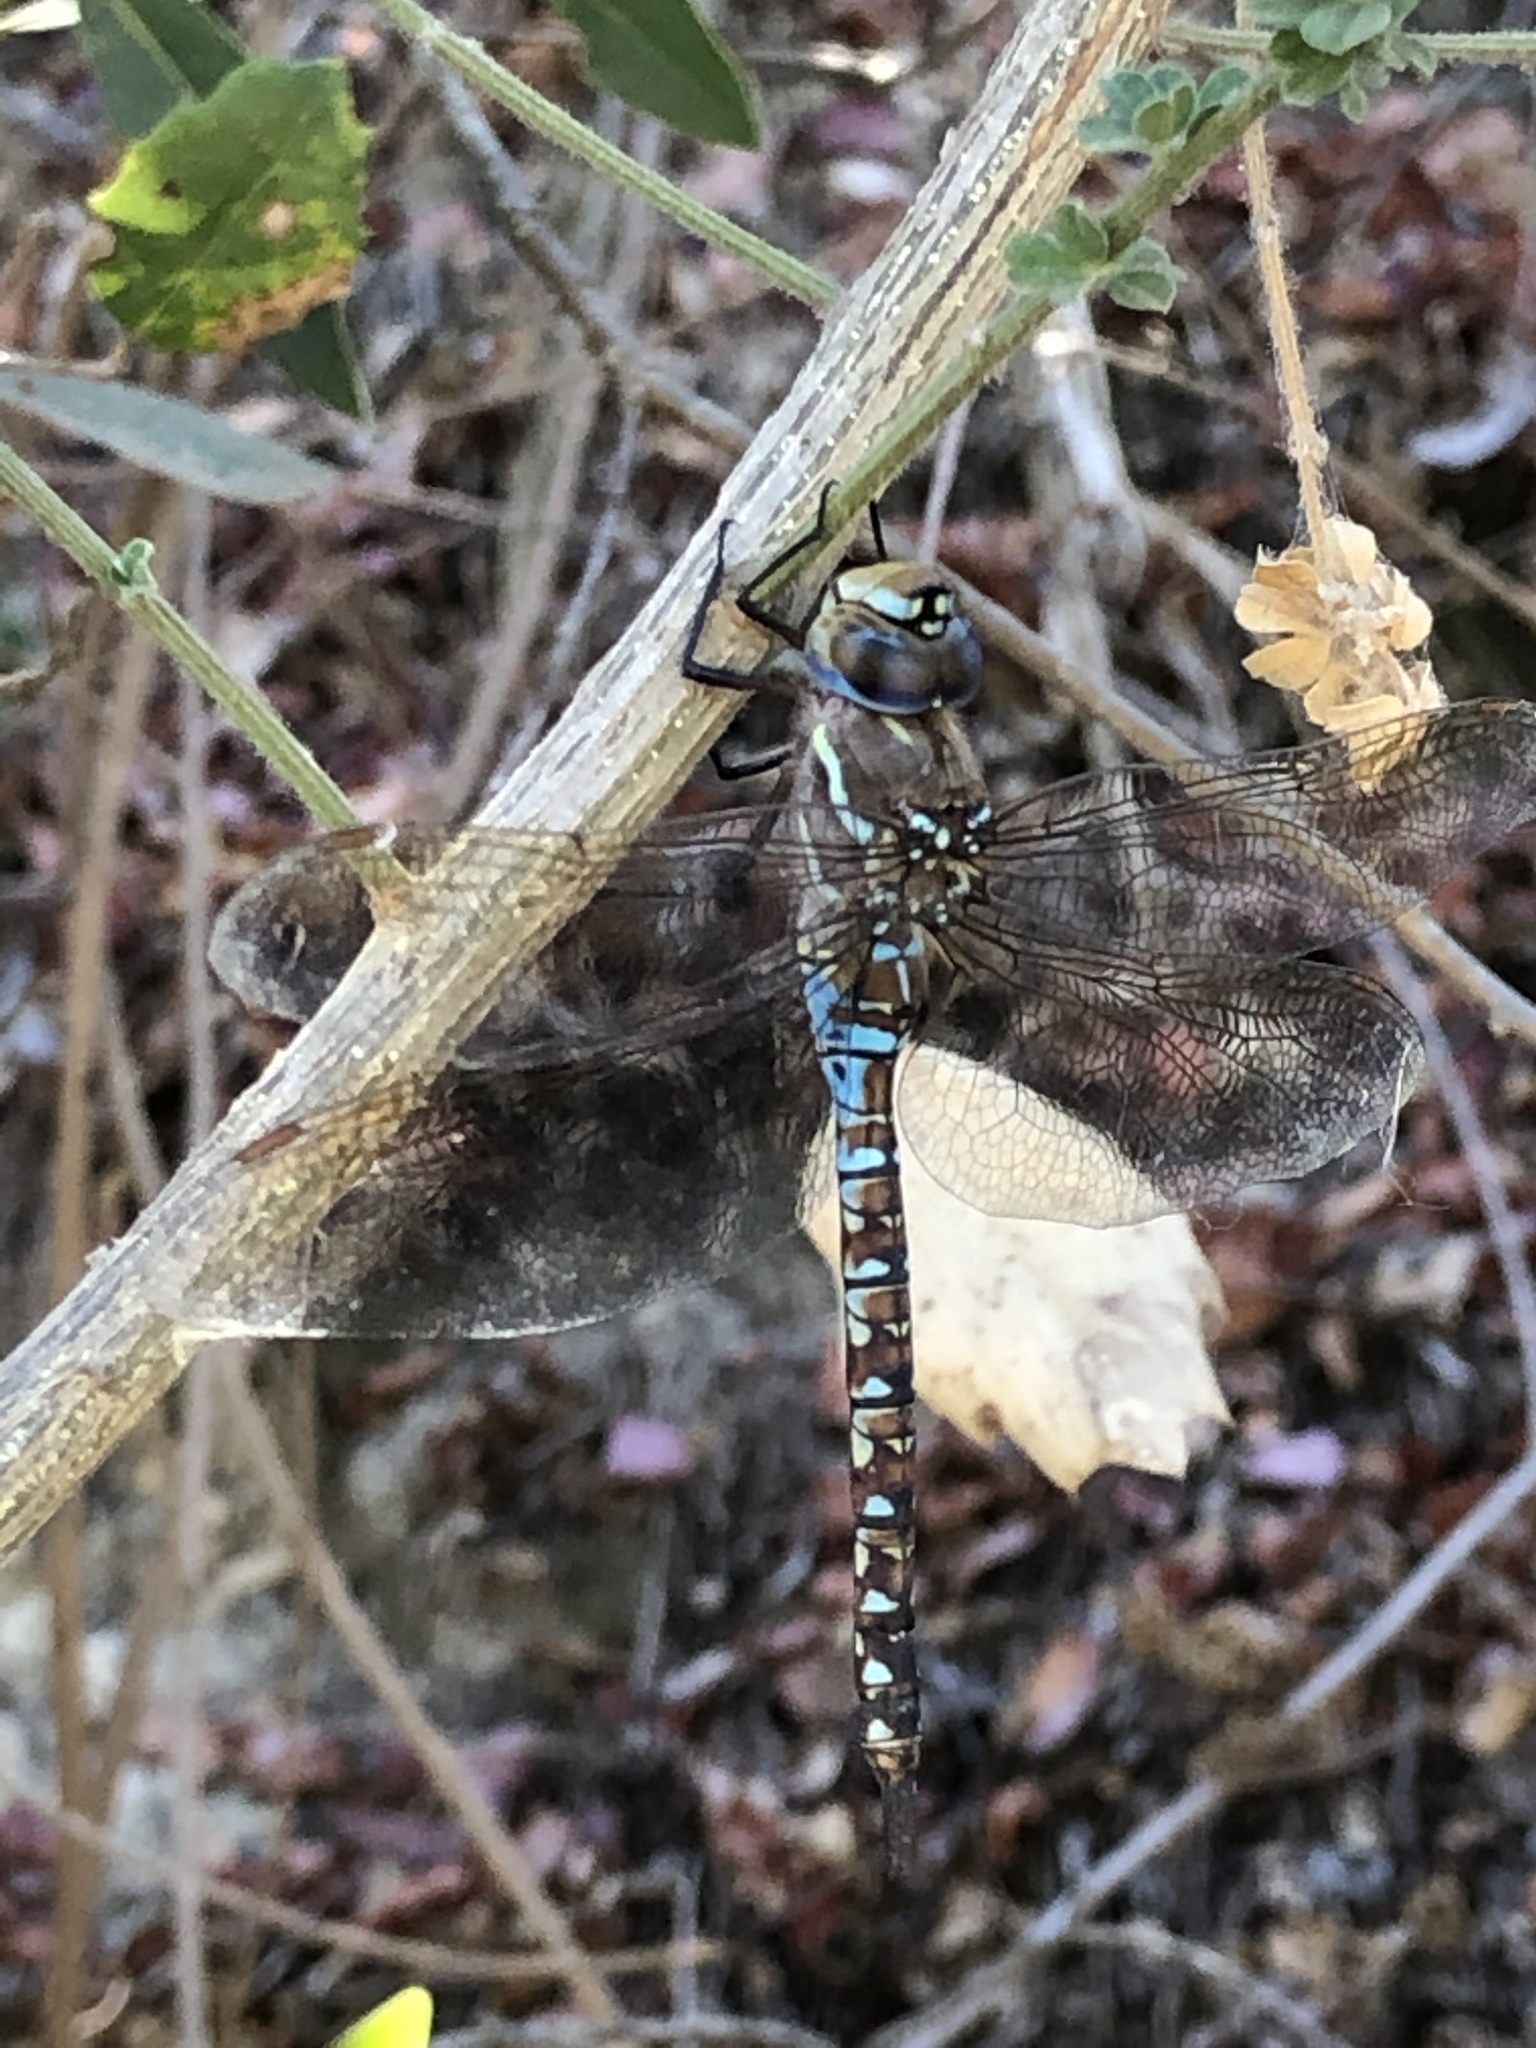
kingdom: Animalia
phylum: Arthropoda
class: Insecta
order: Odonata
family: Aeshnidae
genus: Rhionaeschna
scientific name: Rhionaeschna multicolor
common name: Blue-eyed darner
